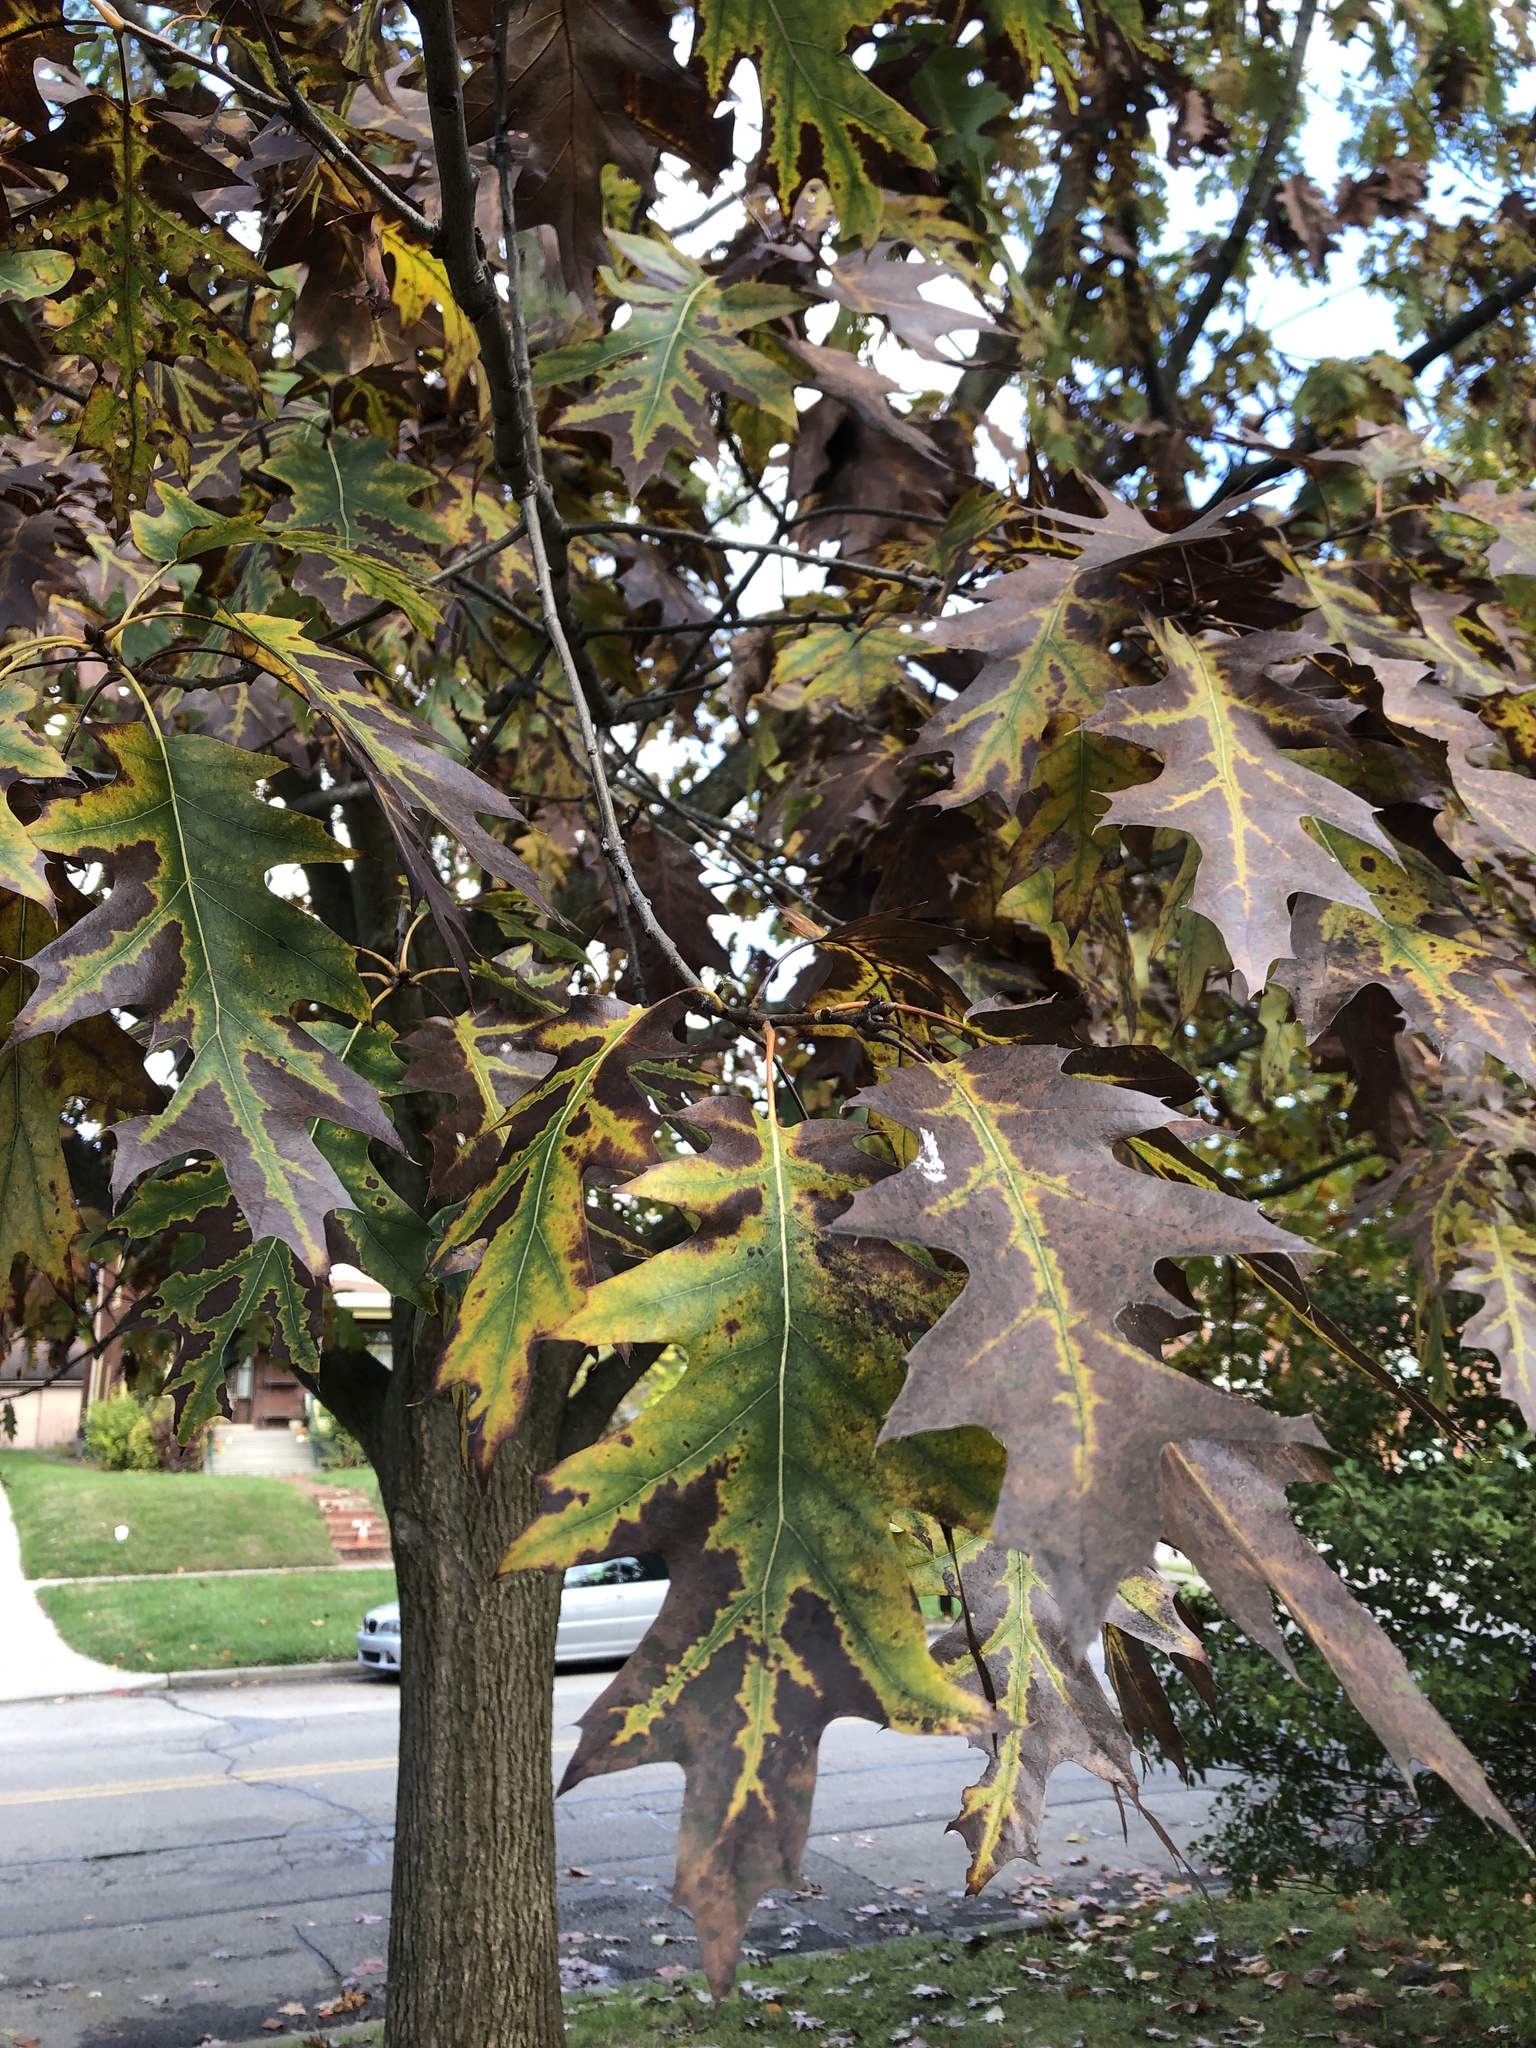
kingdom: Plantae
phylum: Tracheophyta
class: Magnoliopsida
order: Fagales
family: Fagaceae
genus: Quercus
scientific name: Quercus rubra
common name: Red oak
